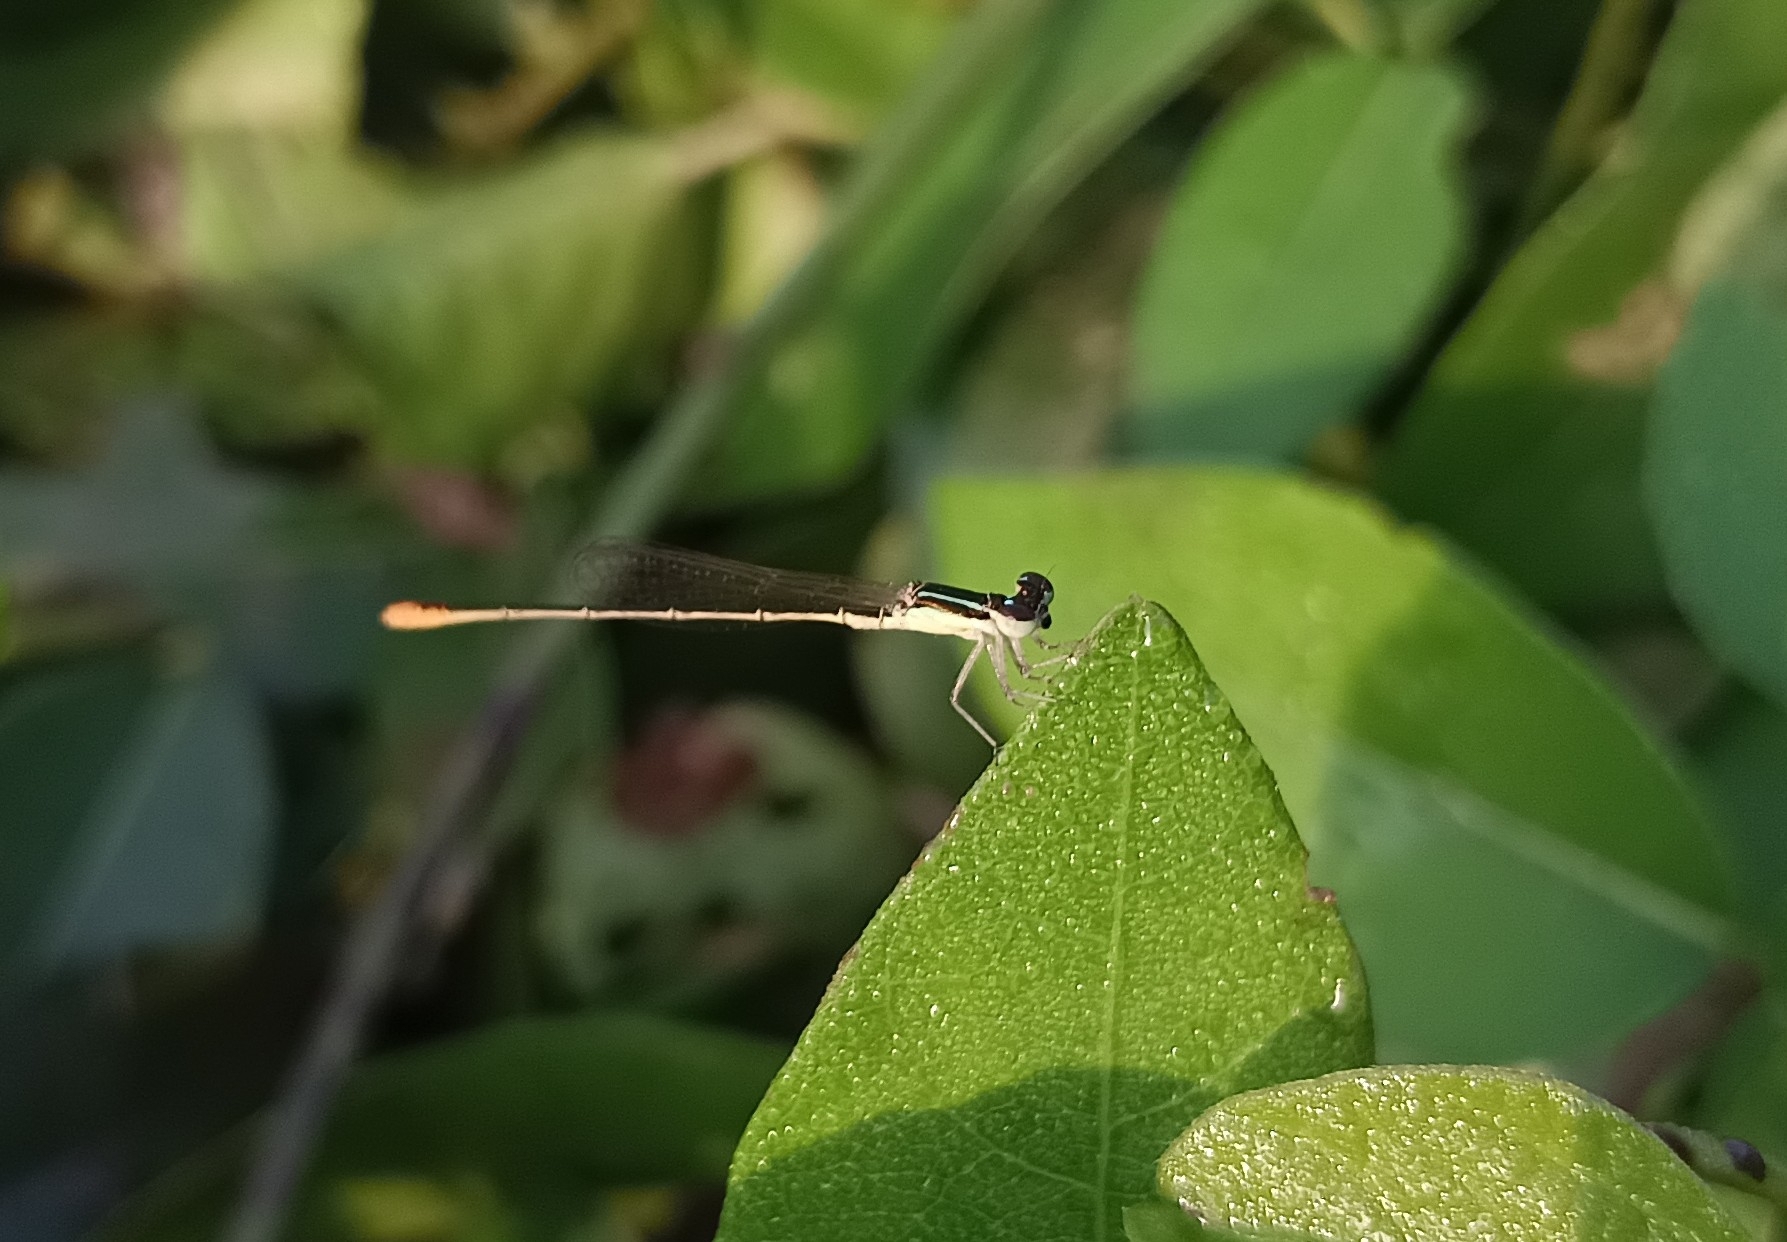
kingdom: Animalia
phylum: Arthropoda
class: Insecta
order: Odonata
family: Coenagrionidae
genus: Agriocnemis
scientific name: Agriocnemis pygmaea
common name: Pygmy wisp
